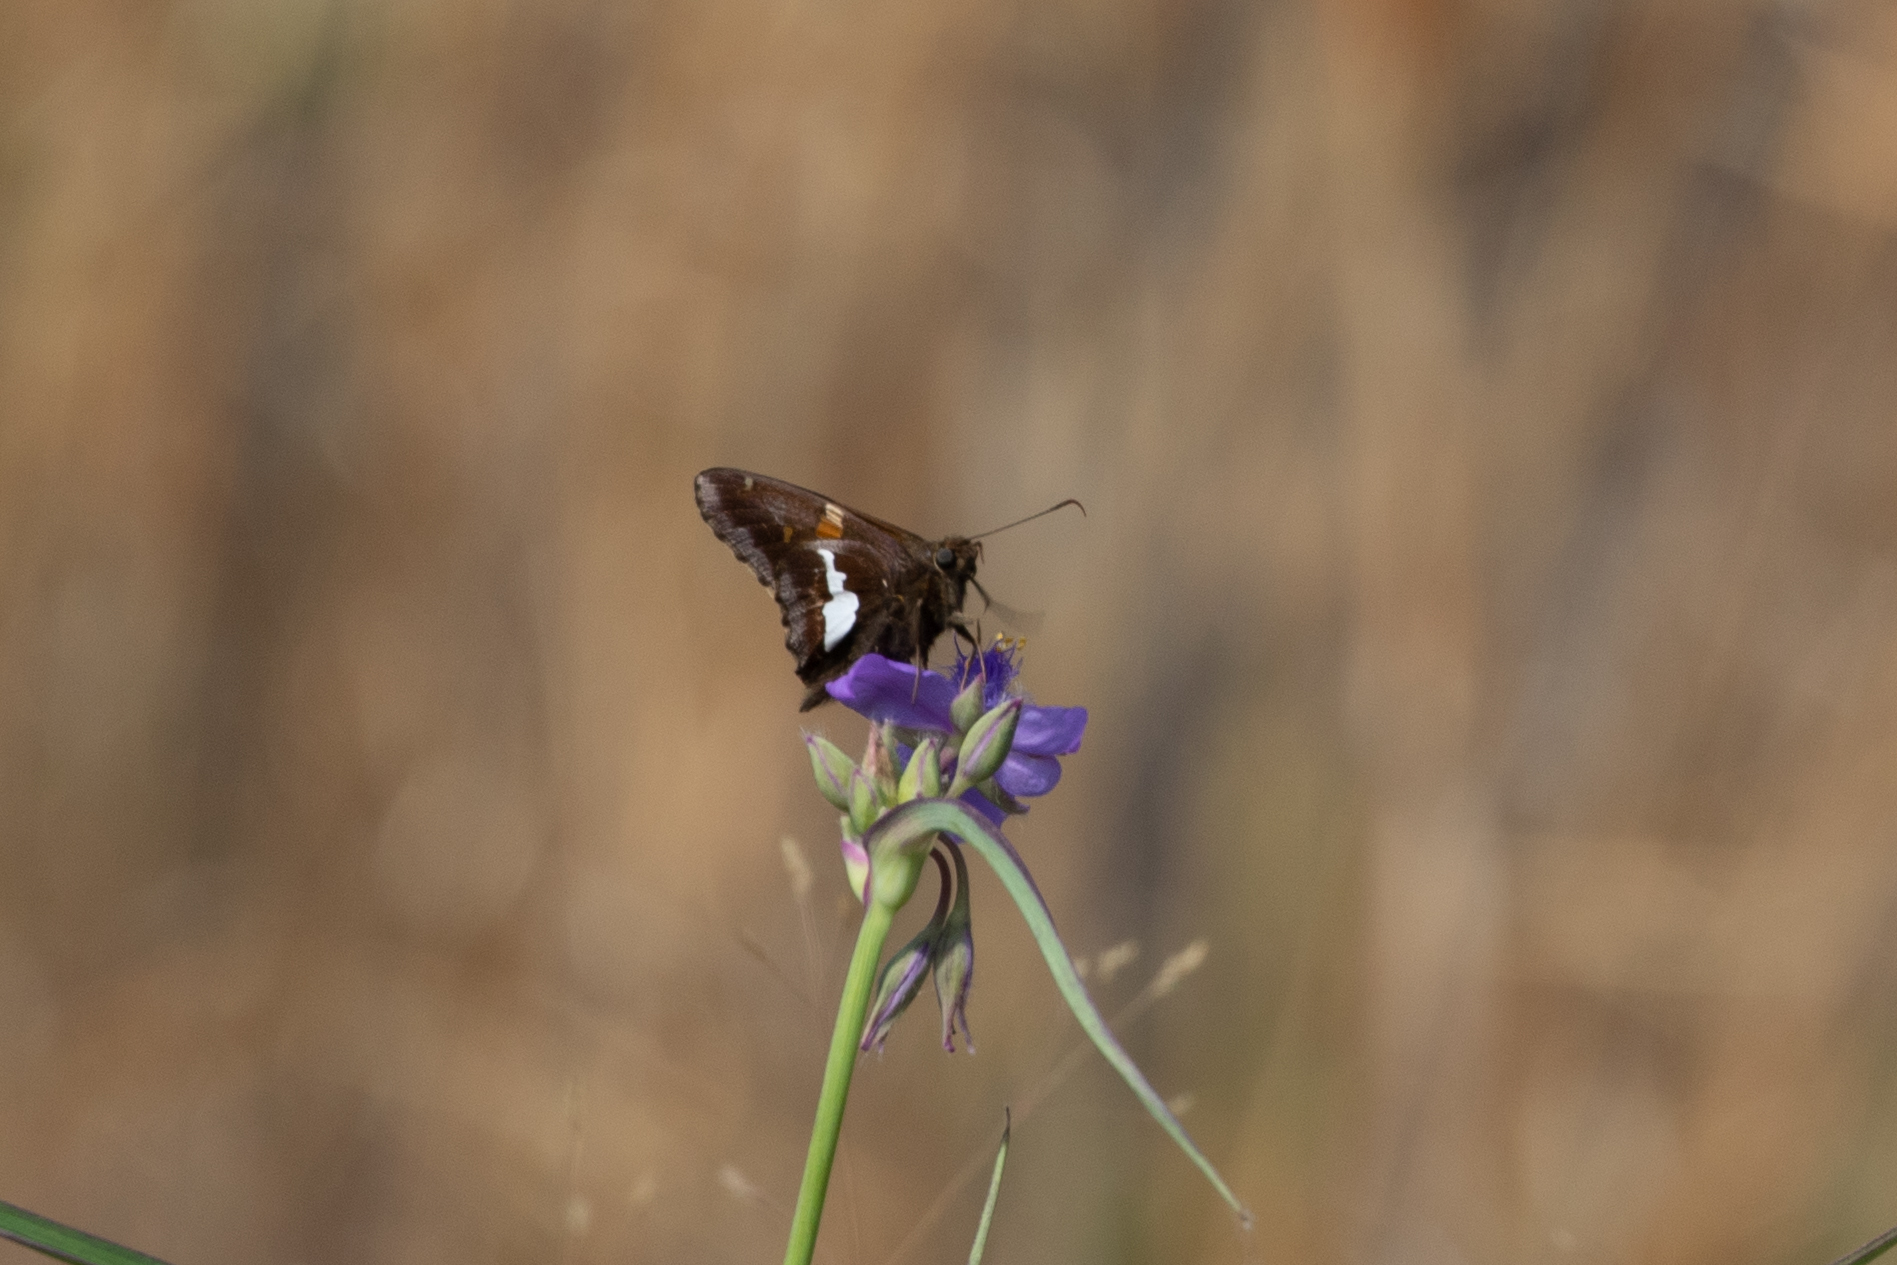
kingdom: Animalia
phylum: Arthropoda
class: Insecta
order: Lepidoptera
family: Hesperiidae
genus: Epargyreus
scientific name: Epargyreus clarus
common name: Silver-spotted skipper
